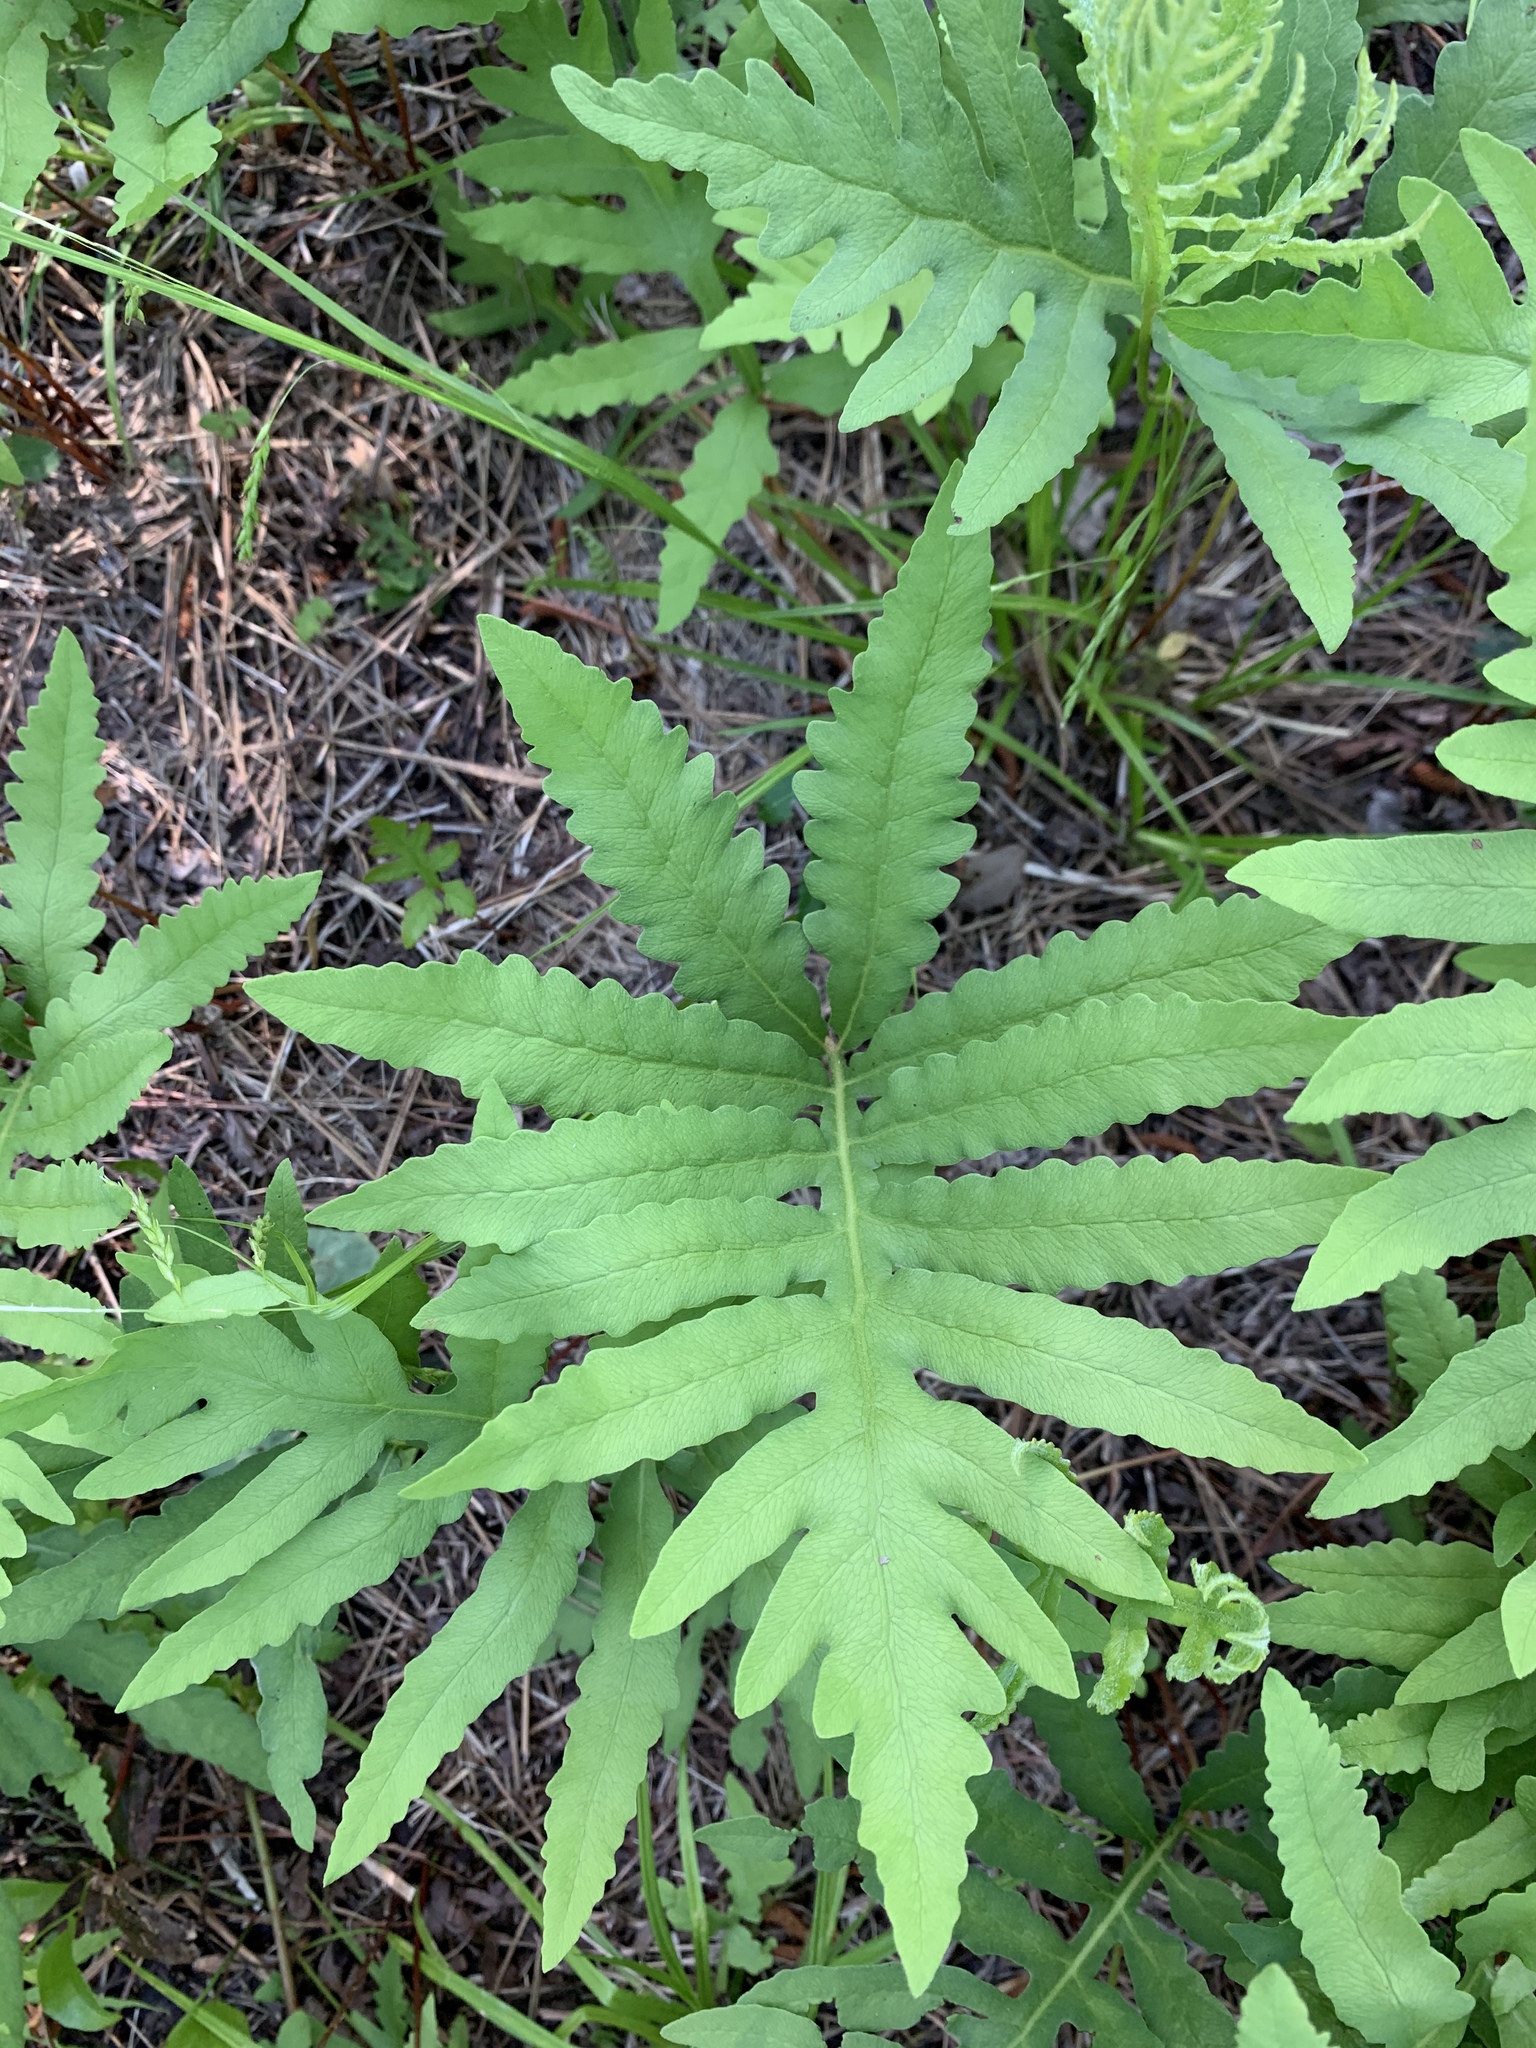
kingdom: Plantae
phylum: Tracheophyta
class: Polypodiopsida
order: Polypodiales
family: Onocleaceae
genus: Onoclea
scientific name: Onoclea sensibilis
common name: Sensitive fern
